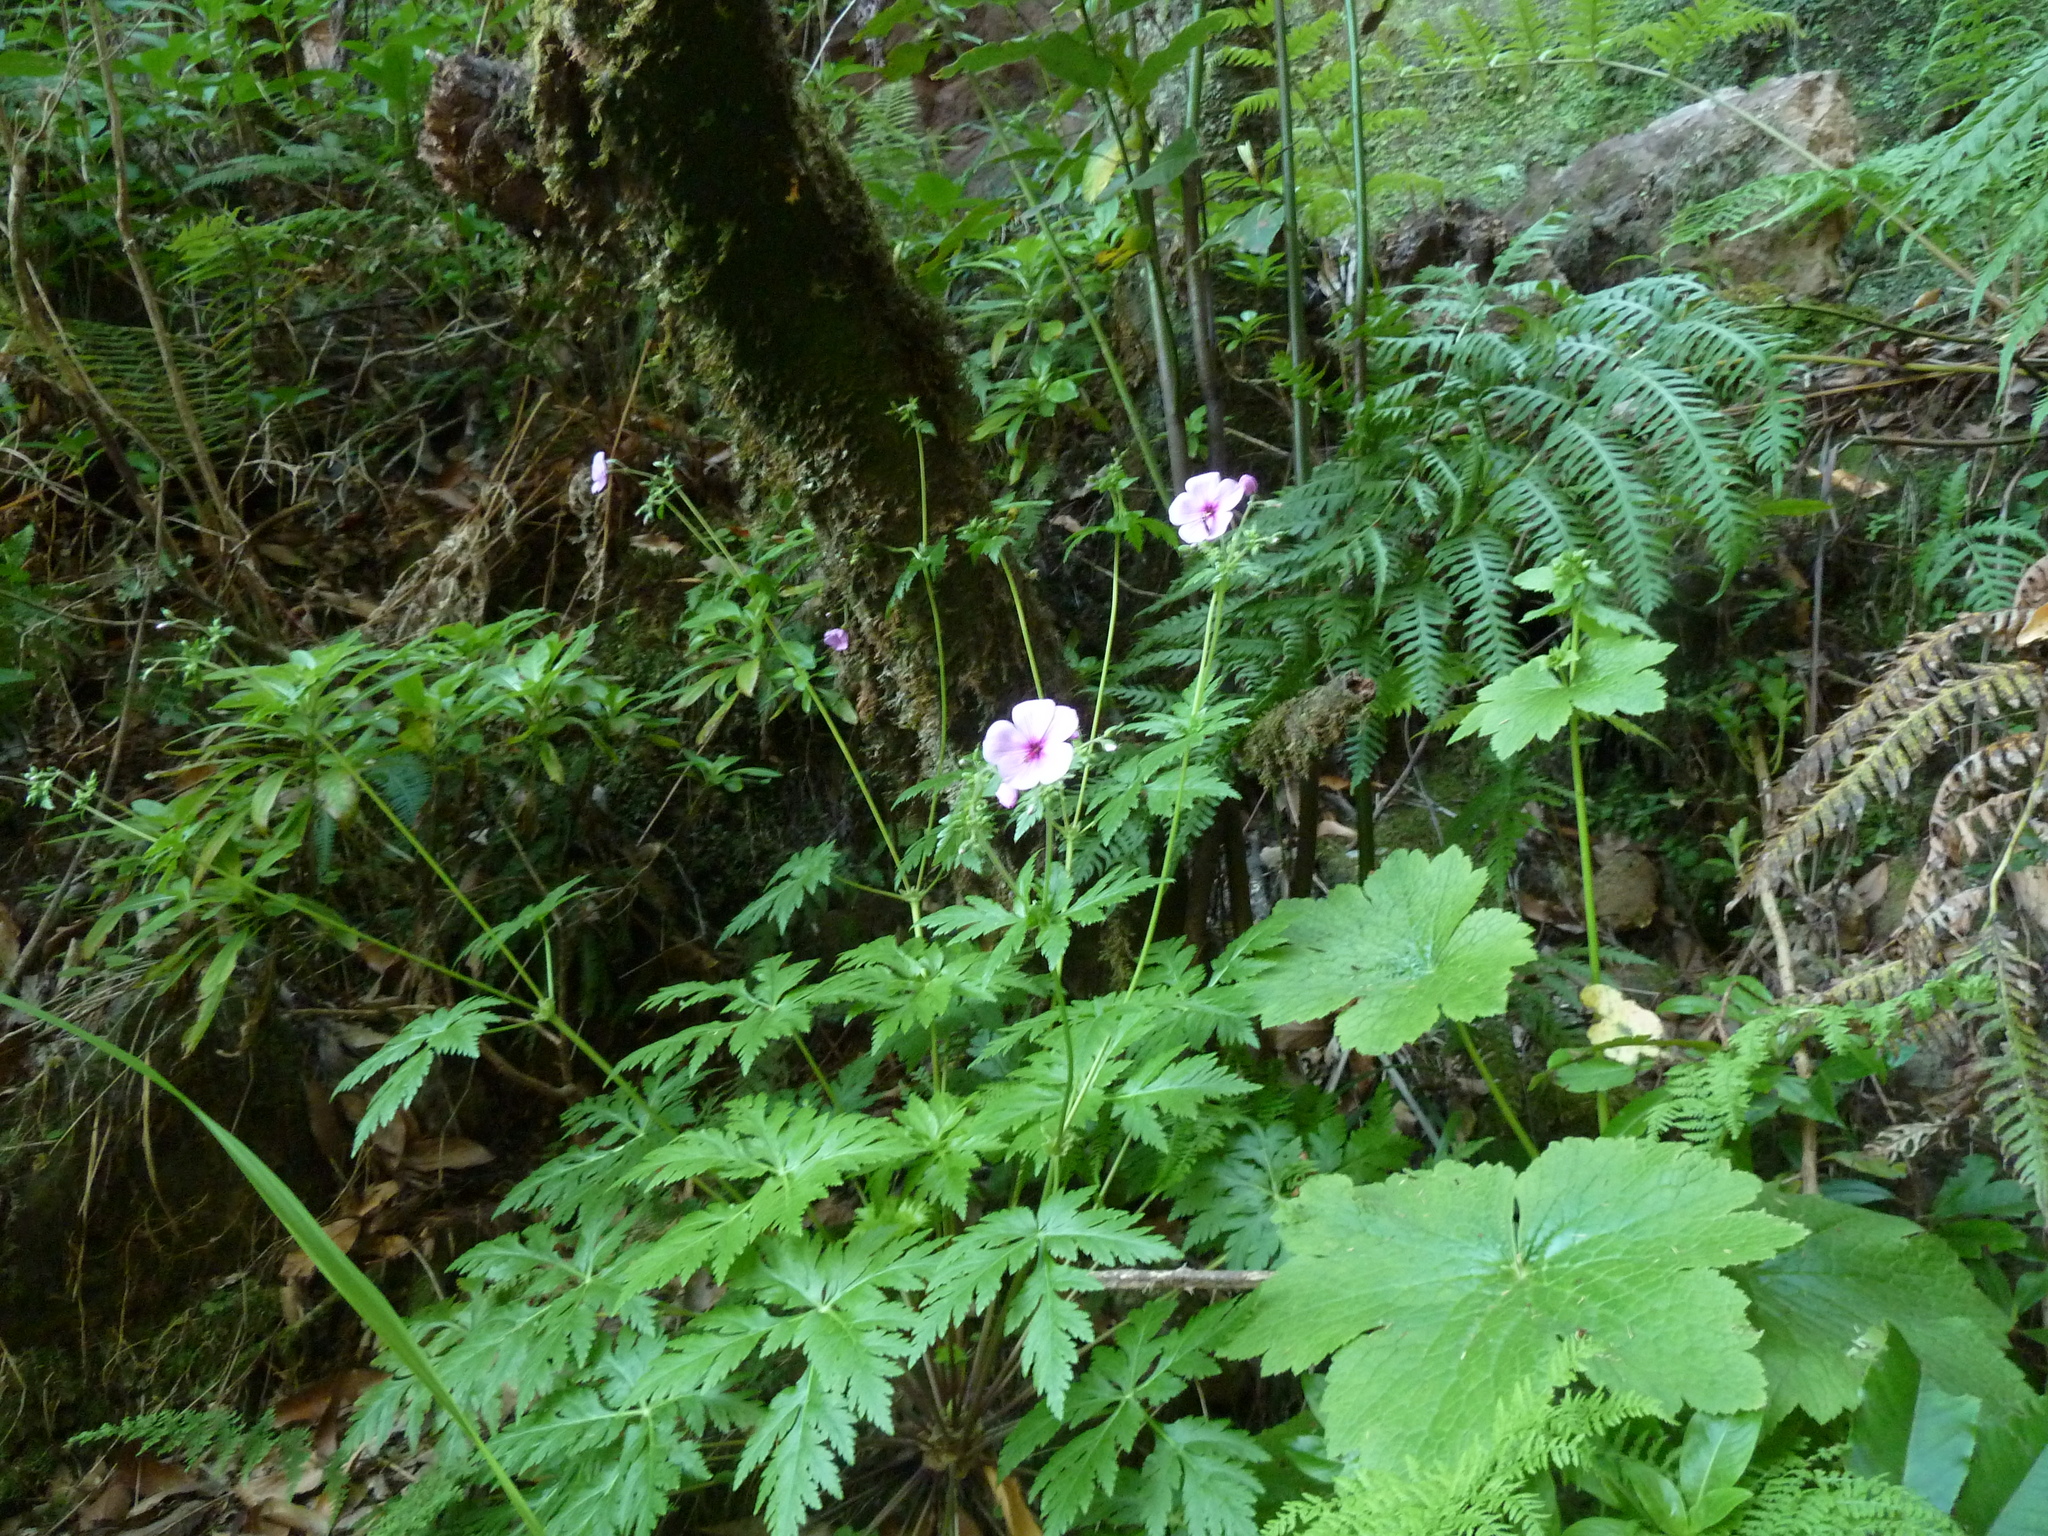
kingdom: Plantae
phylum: Tracheophyta
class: Magnoliopsida
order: Geraniales
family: Geraniaceae
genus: Geranium
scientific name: Geranium palmatum
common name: Canary island geranium
